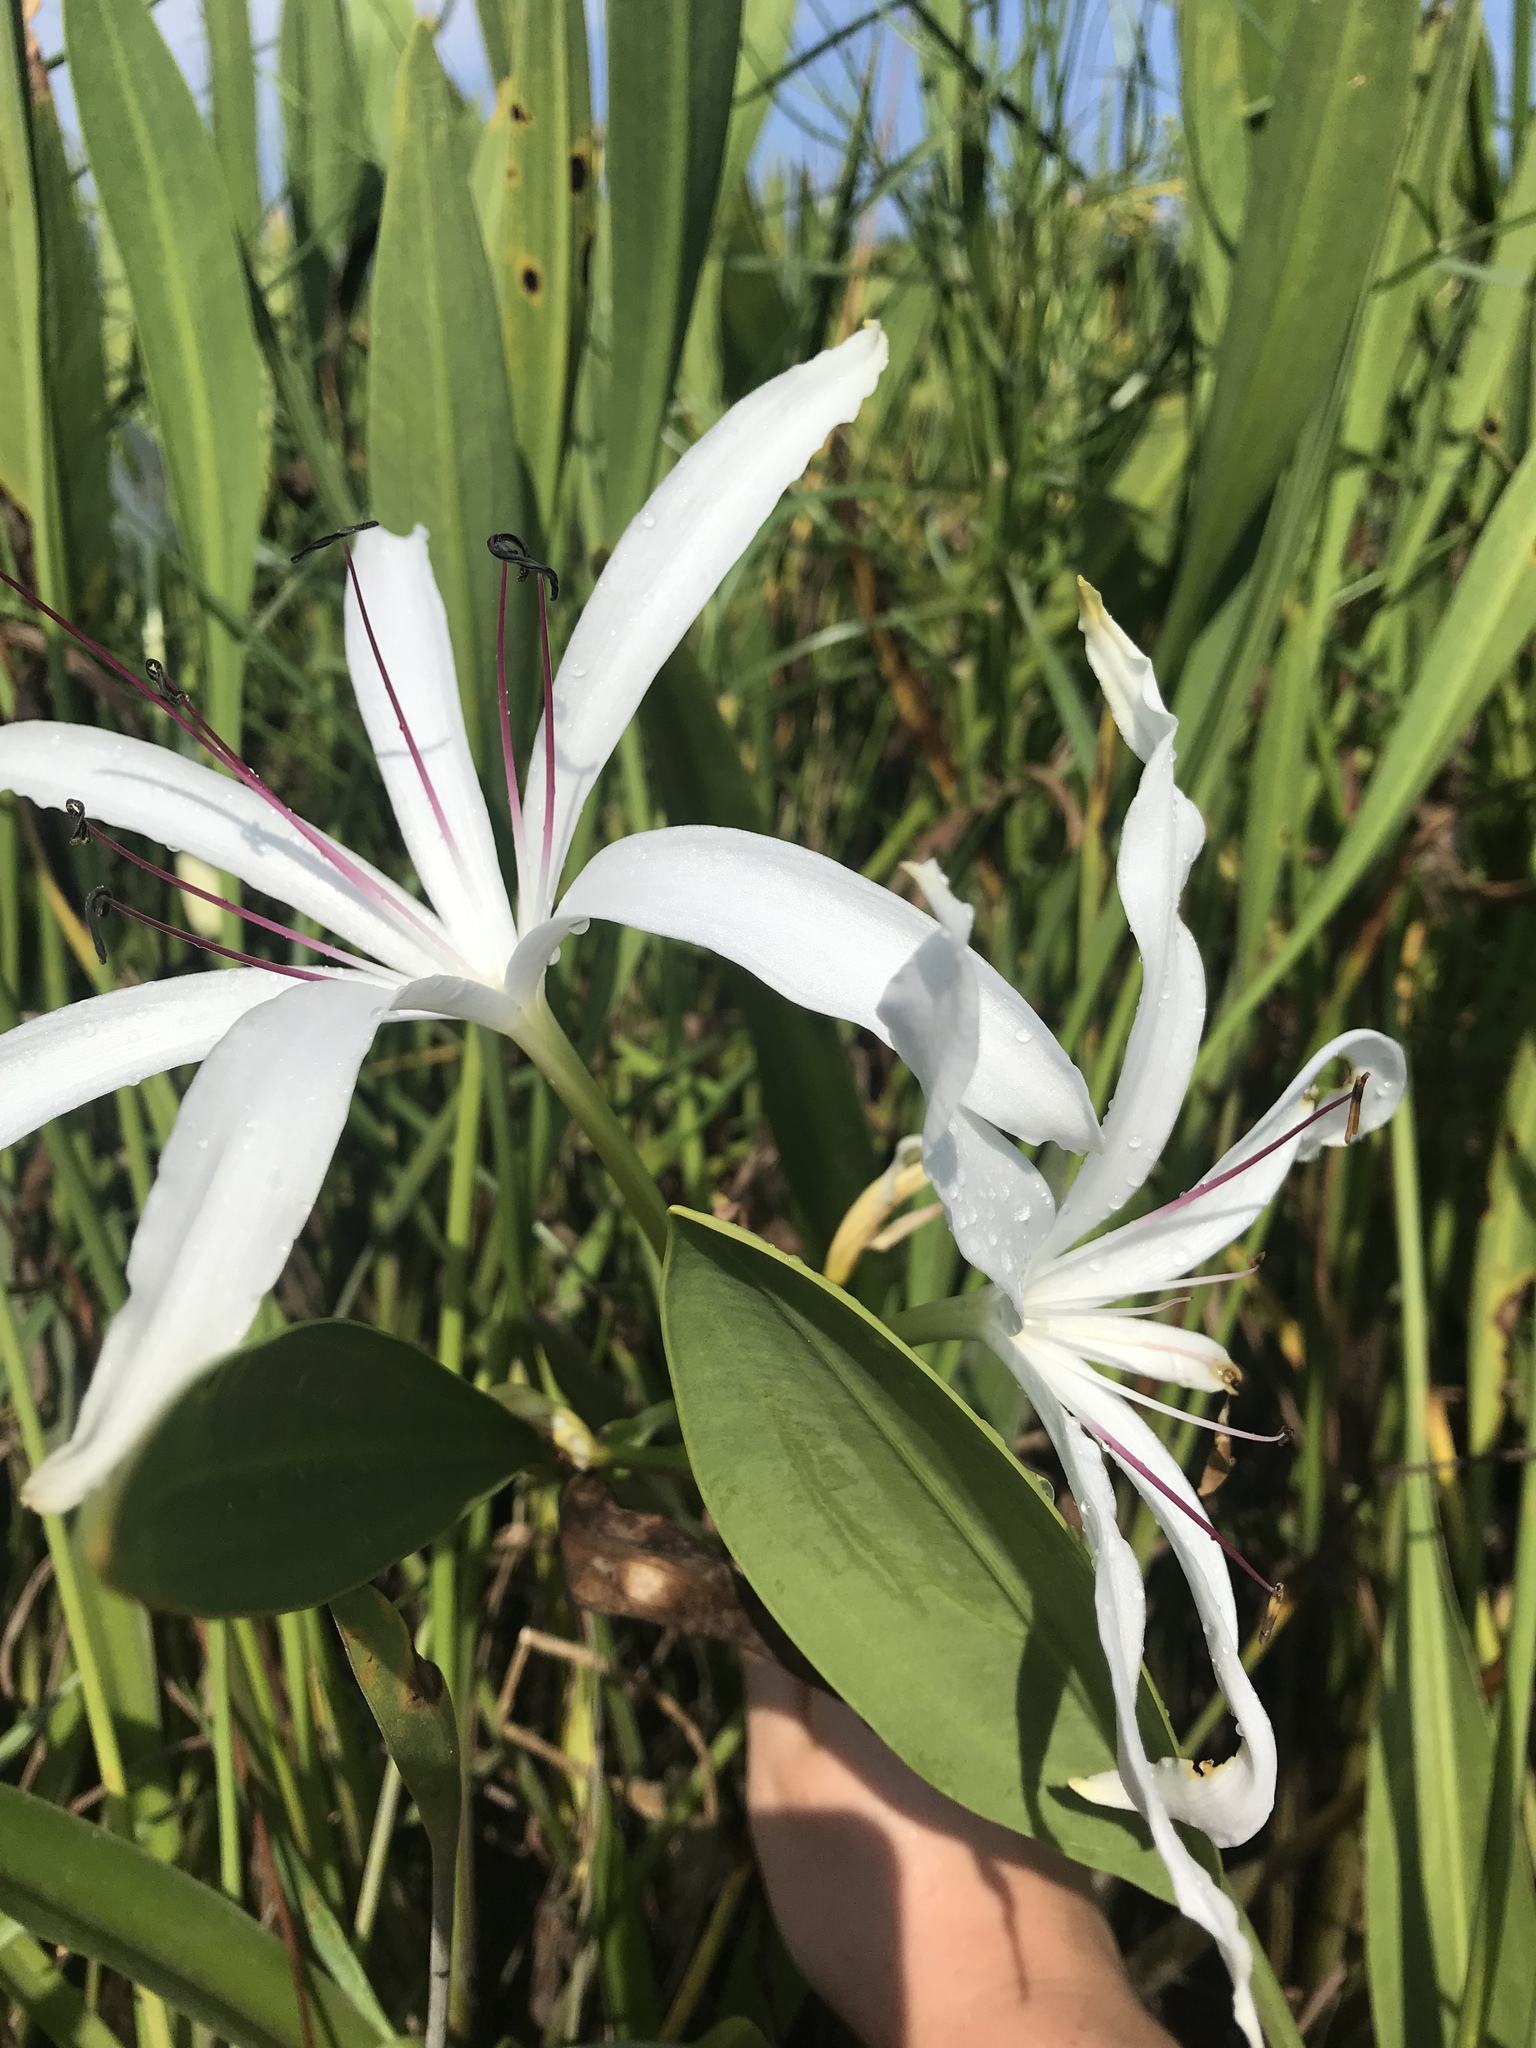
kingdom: Plantae
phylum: Tracheophyta
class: Liliopsida
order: Asparagales
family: Amaryllidaceae
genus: Crinum
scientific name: Crinum americanum
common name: Florida swamp-lily
